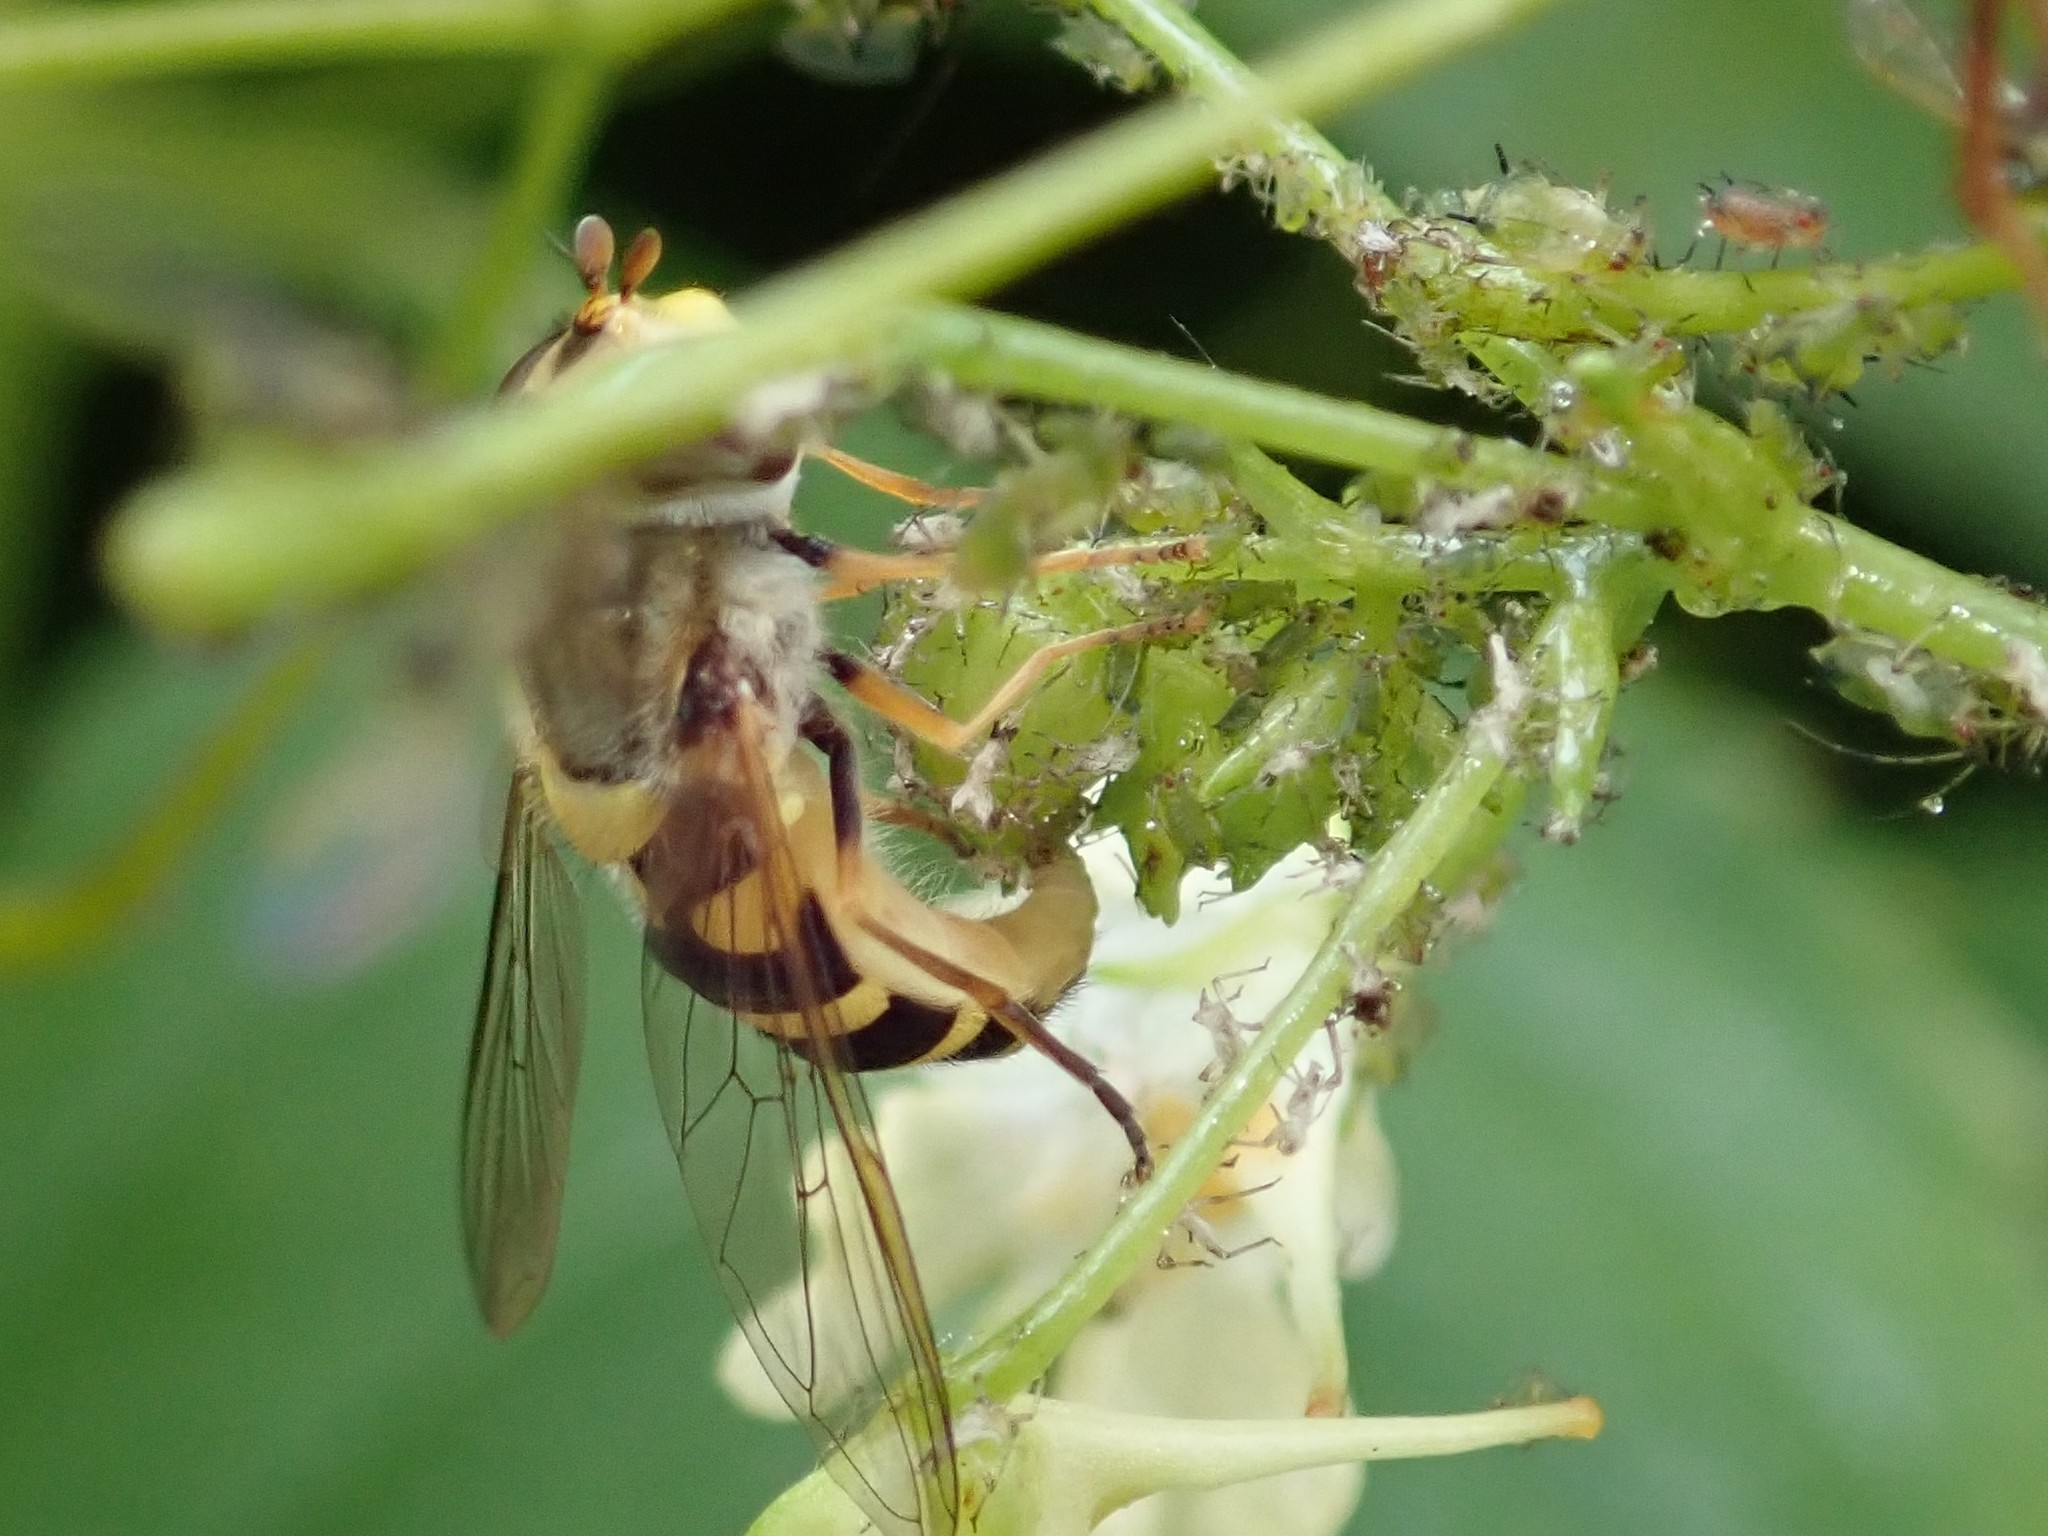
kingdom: Animalia
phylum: Arthropoda
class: Insecta
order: Diptera
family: Syrphidae
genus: Syrphus
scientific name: Syrphus
